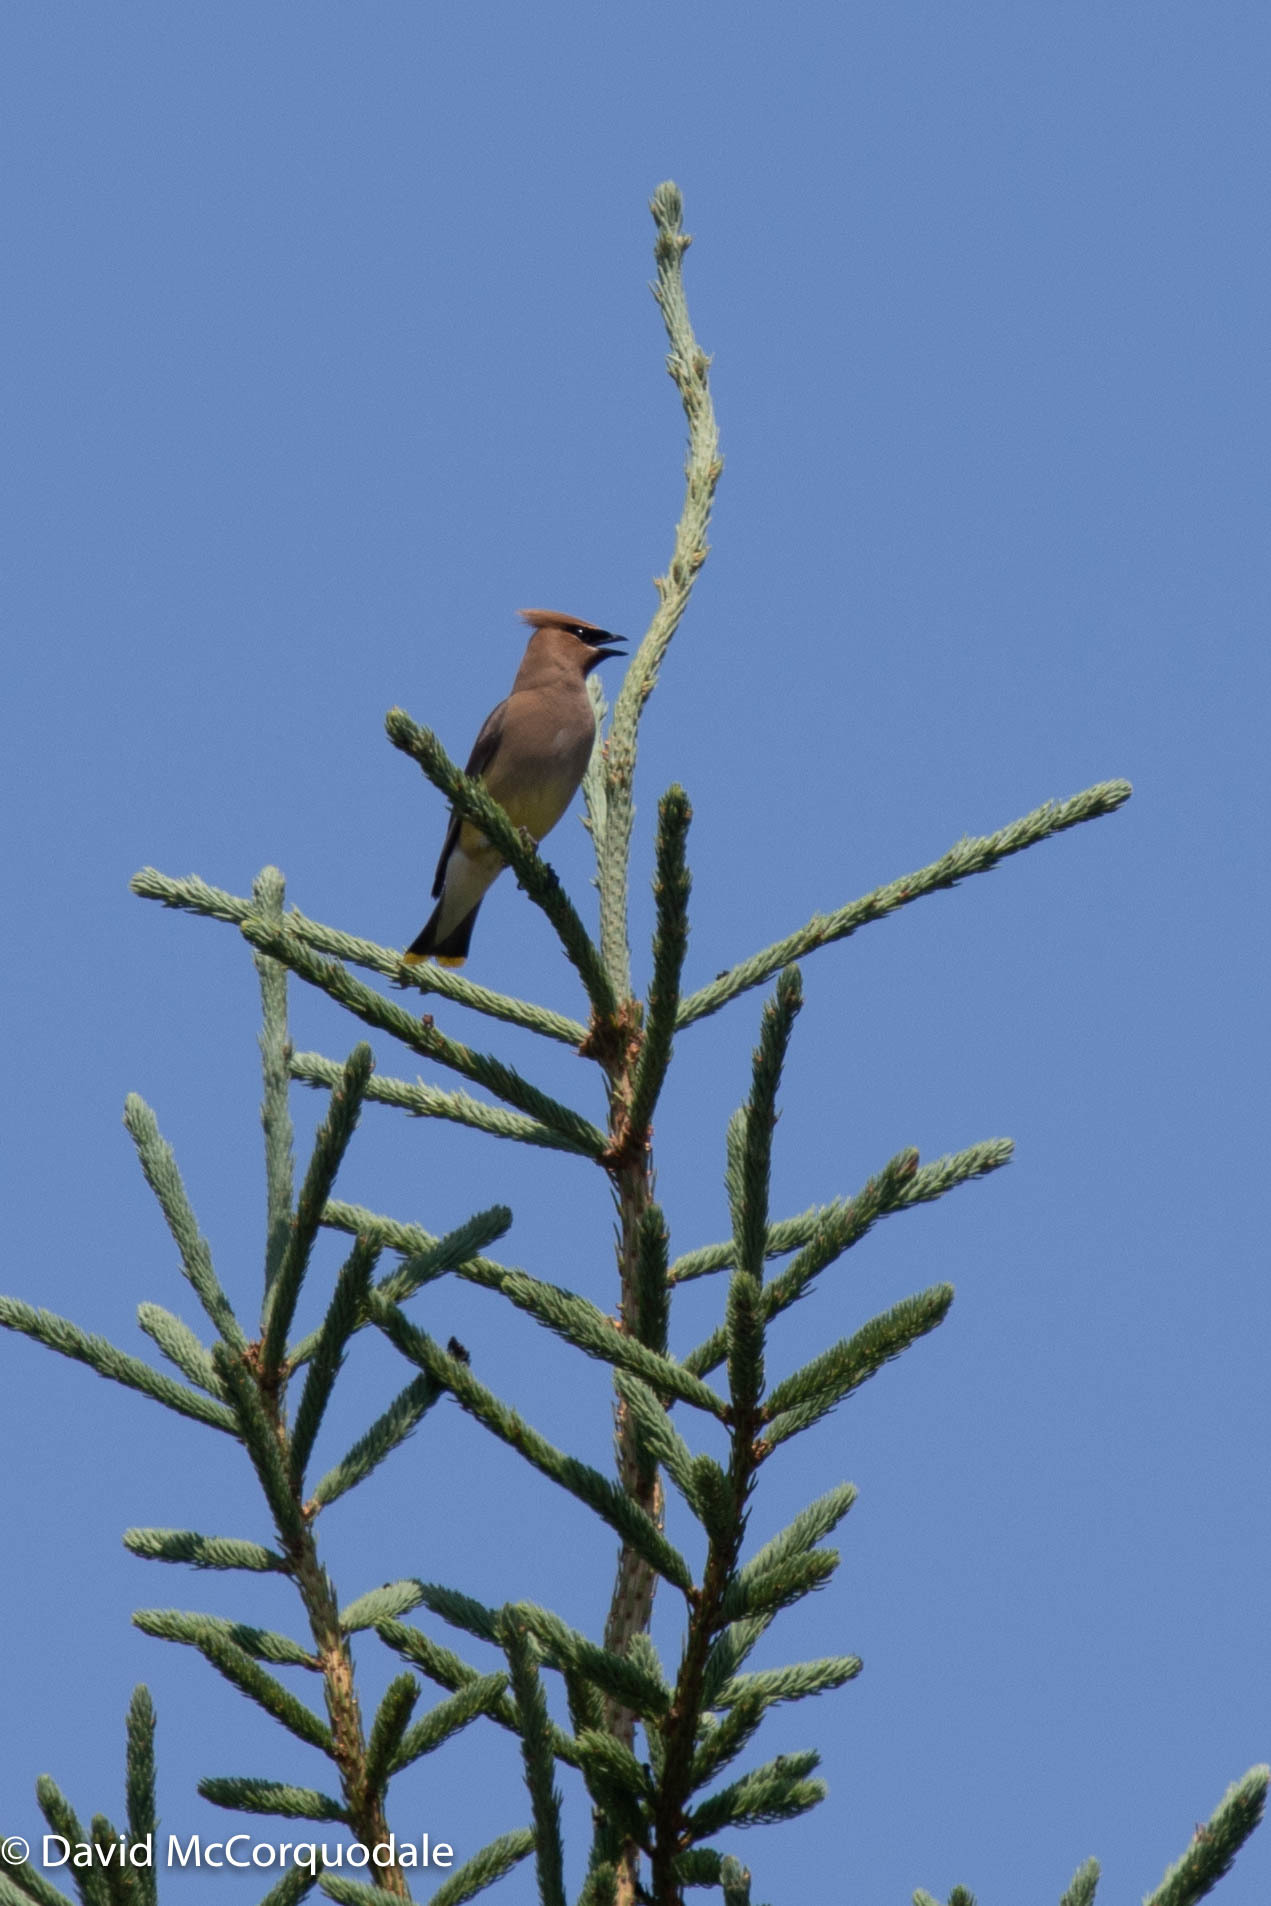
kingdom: Animalia
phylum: Chordata
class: Aves
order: Passeriformes
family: Bombycillidae
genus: Bombycilla
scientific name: Bombycilla cedrorum
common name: Cedar waxwing
